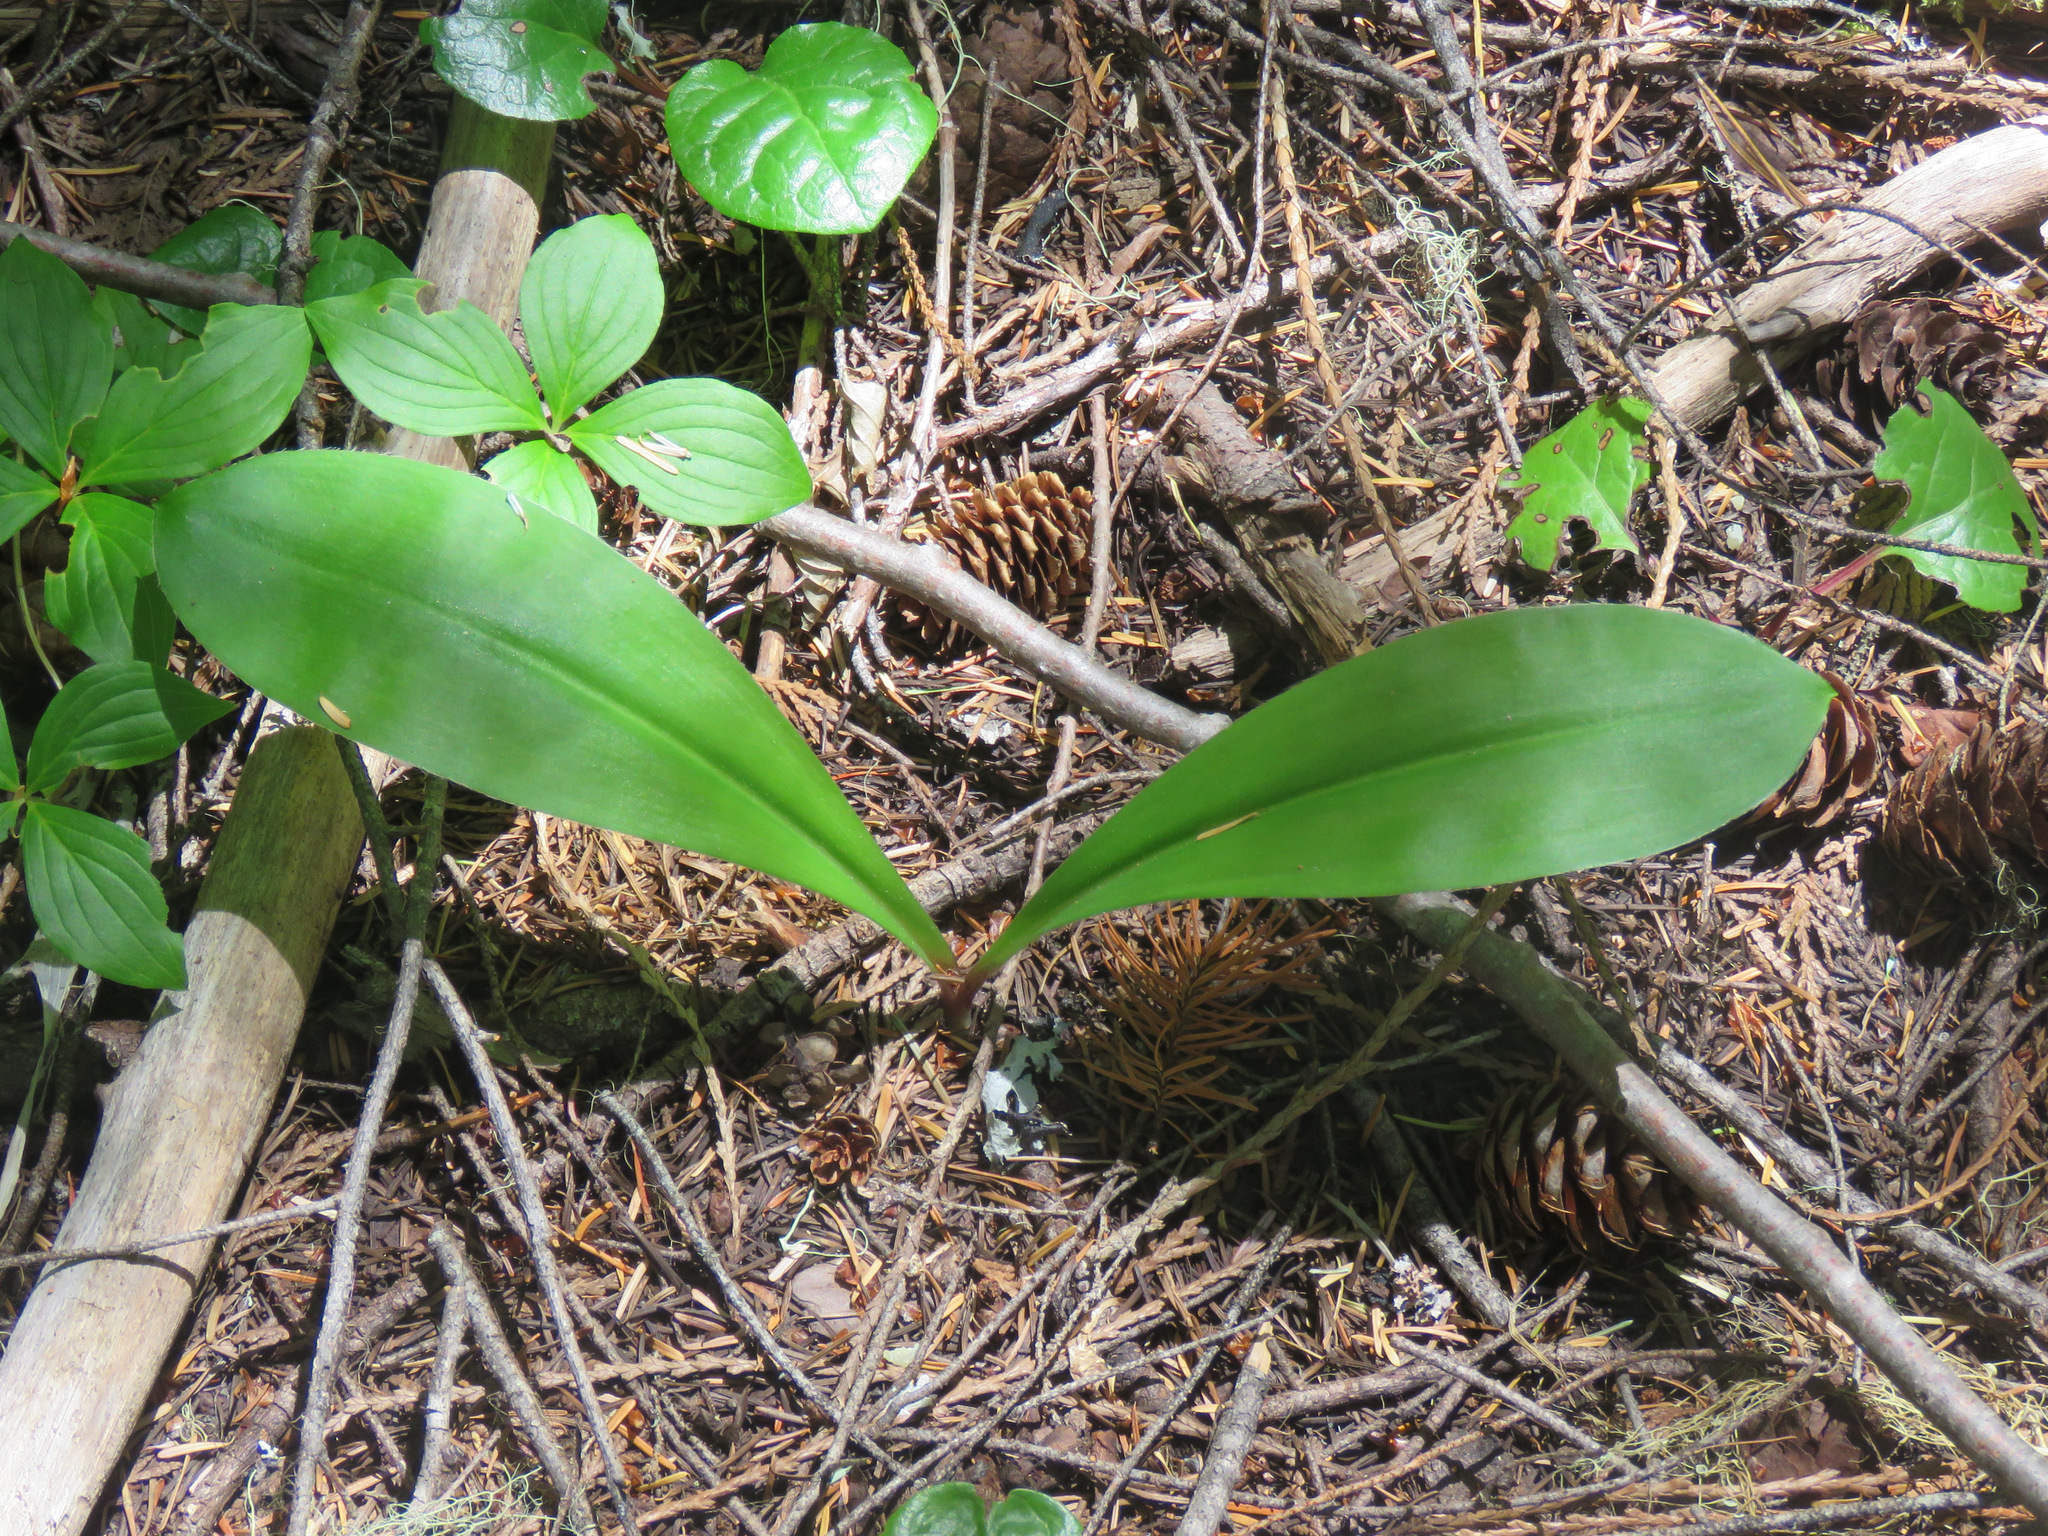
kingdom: Plantae
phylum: Tracheophyta
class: Liliopsida
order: Liliales
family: Liliaceae
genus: Clintonia
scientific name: Clintonia uniflora
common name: Queen's cup
